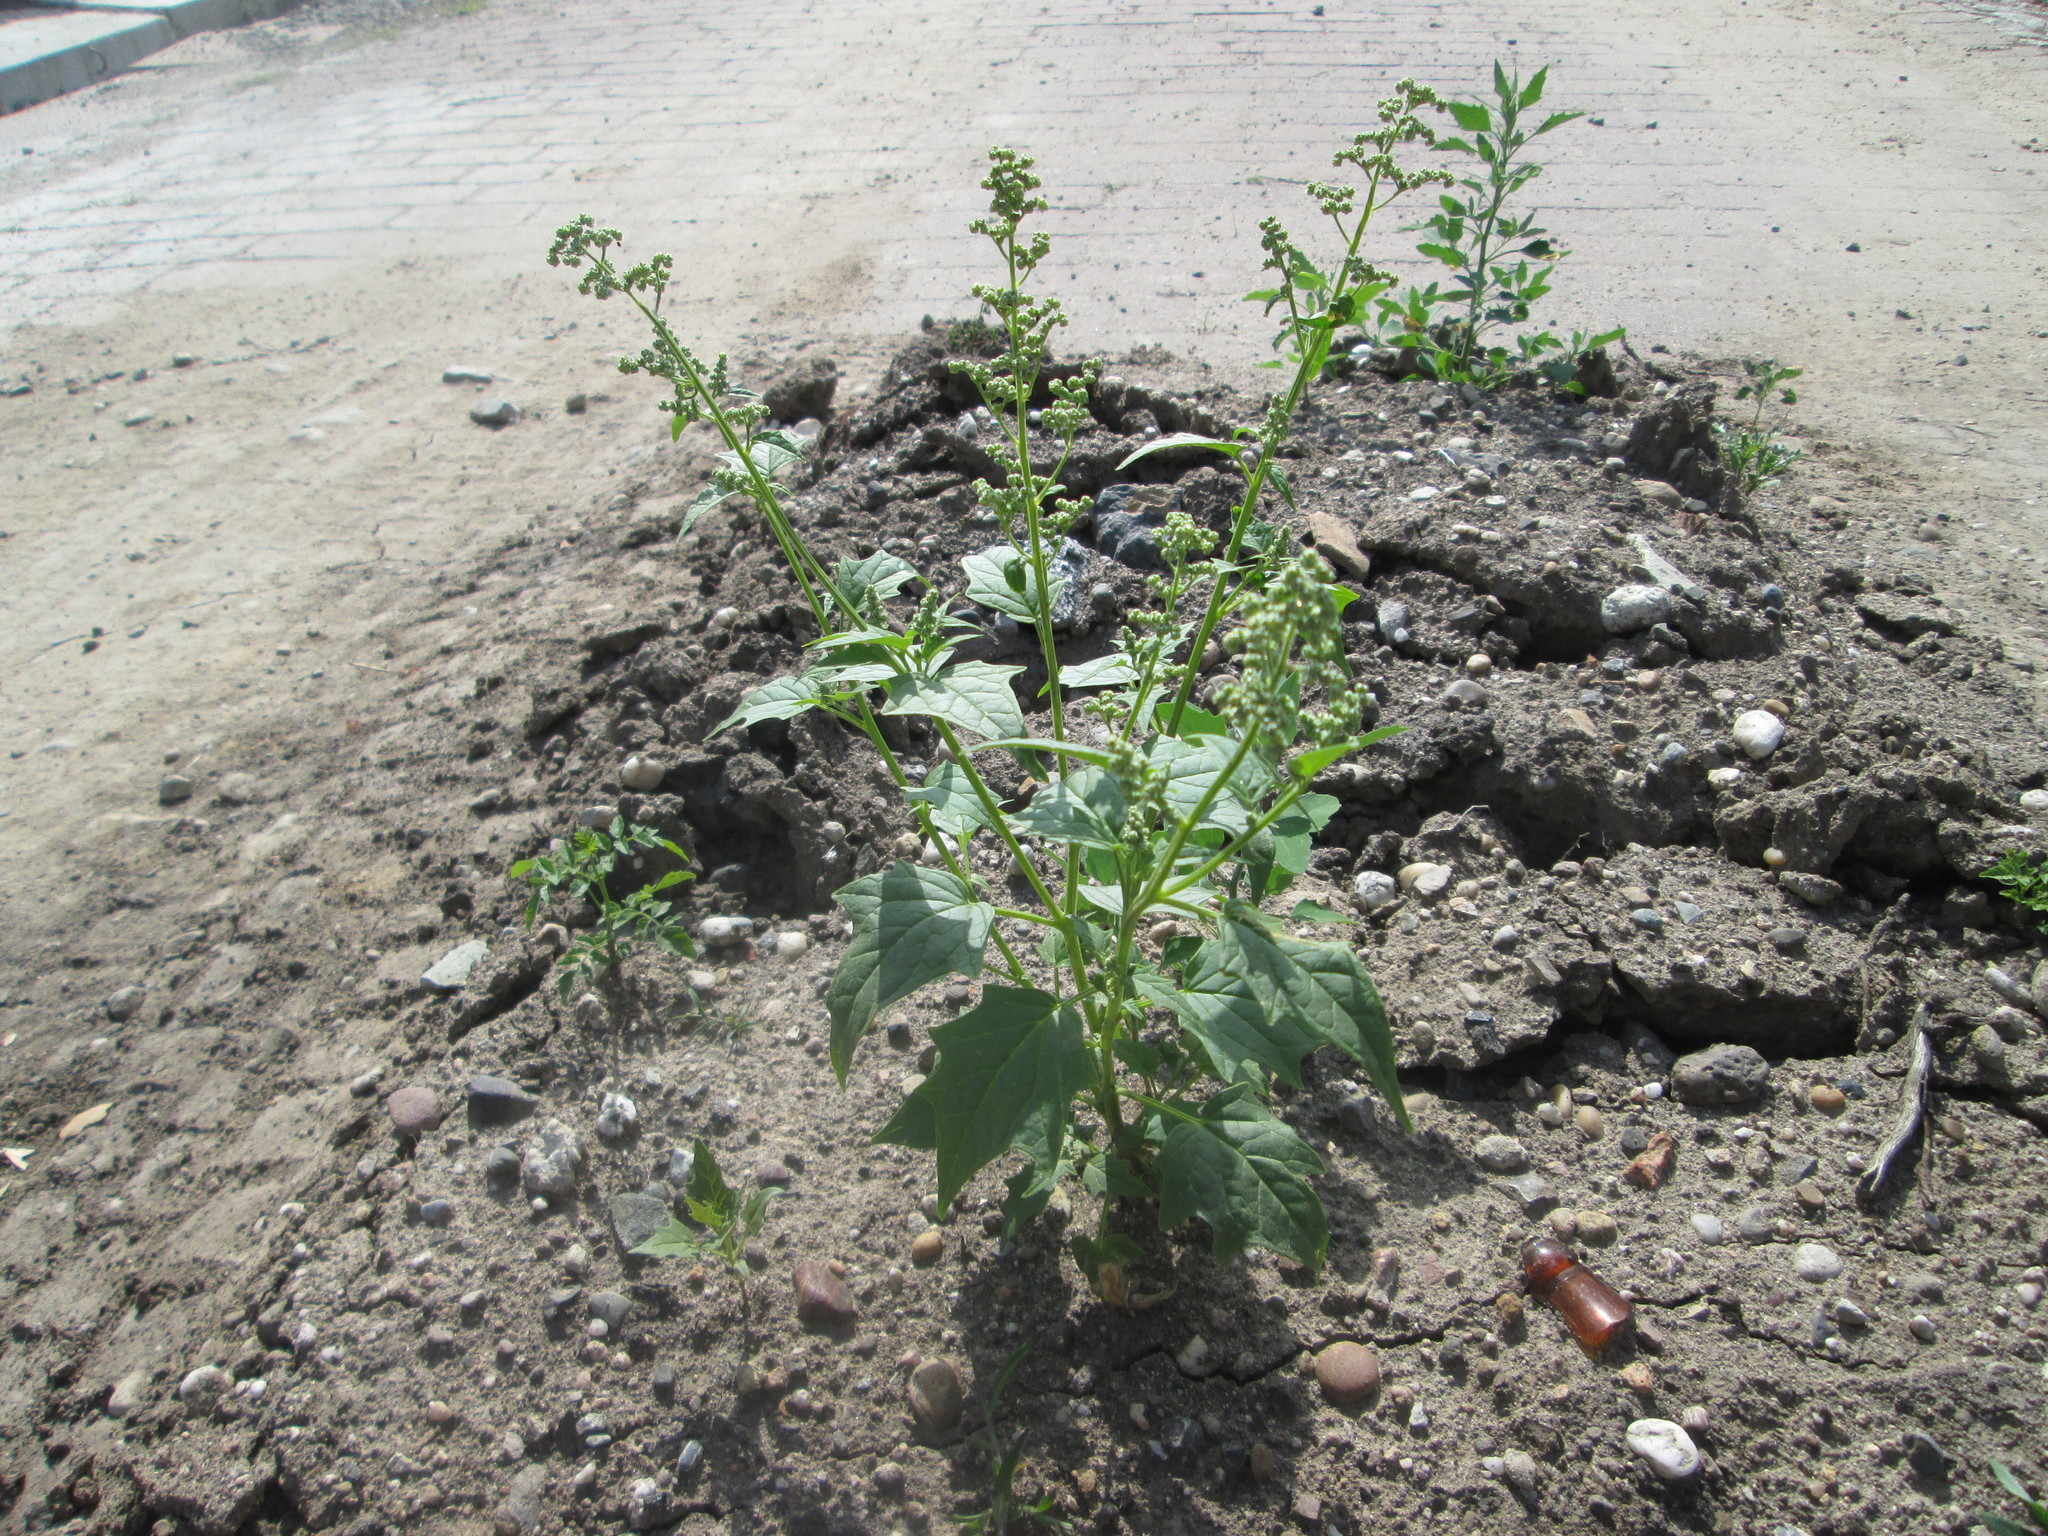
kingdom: Plantae
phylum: Tracheophyta
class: Magnoliopsida
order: Caryophyllales
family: Amaranthaceae
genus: Chenopodiastrum
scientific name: Chenopodiastrum hybridum
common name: Mapleleaf goosefoot
